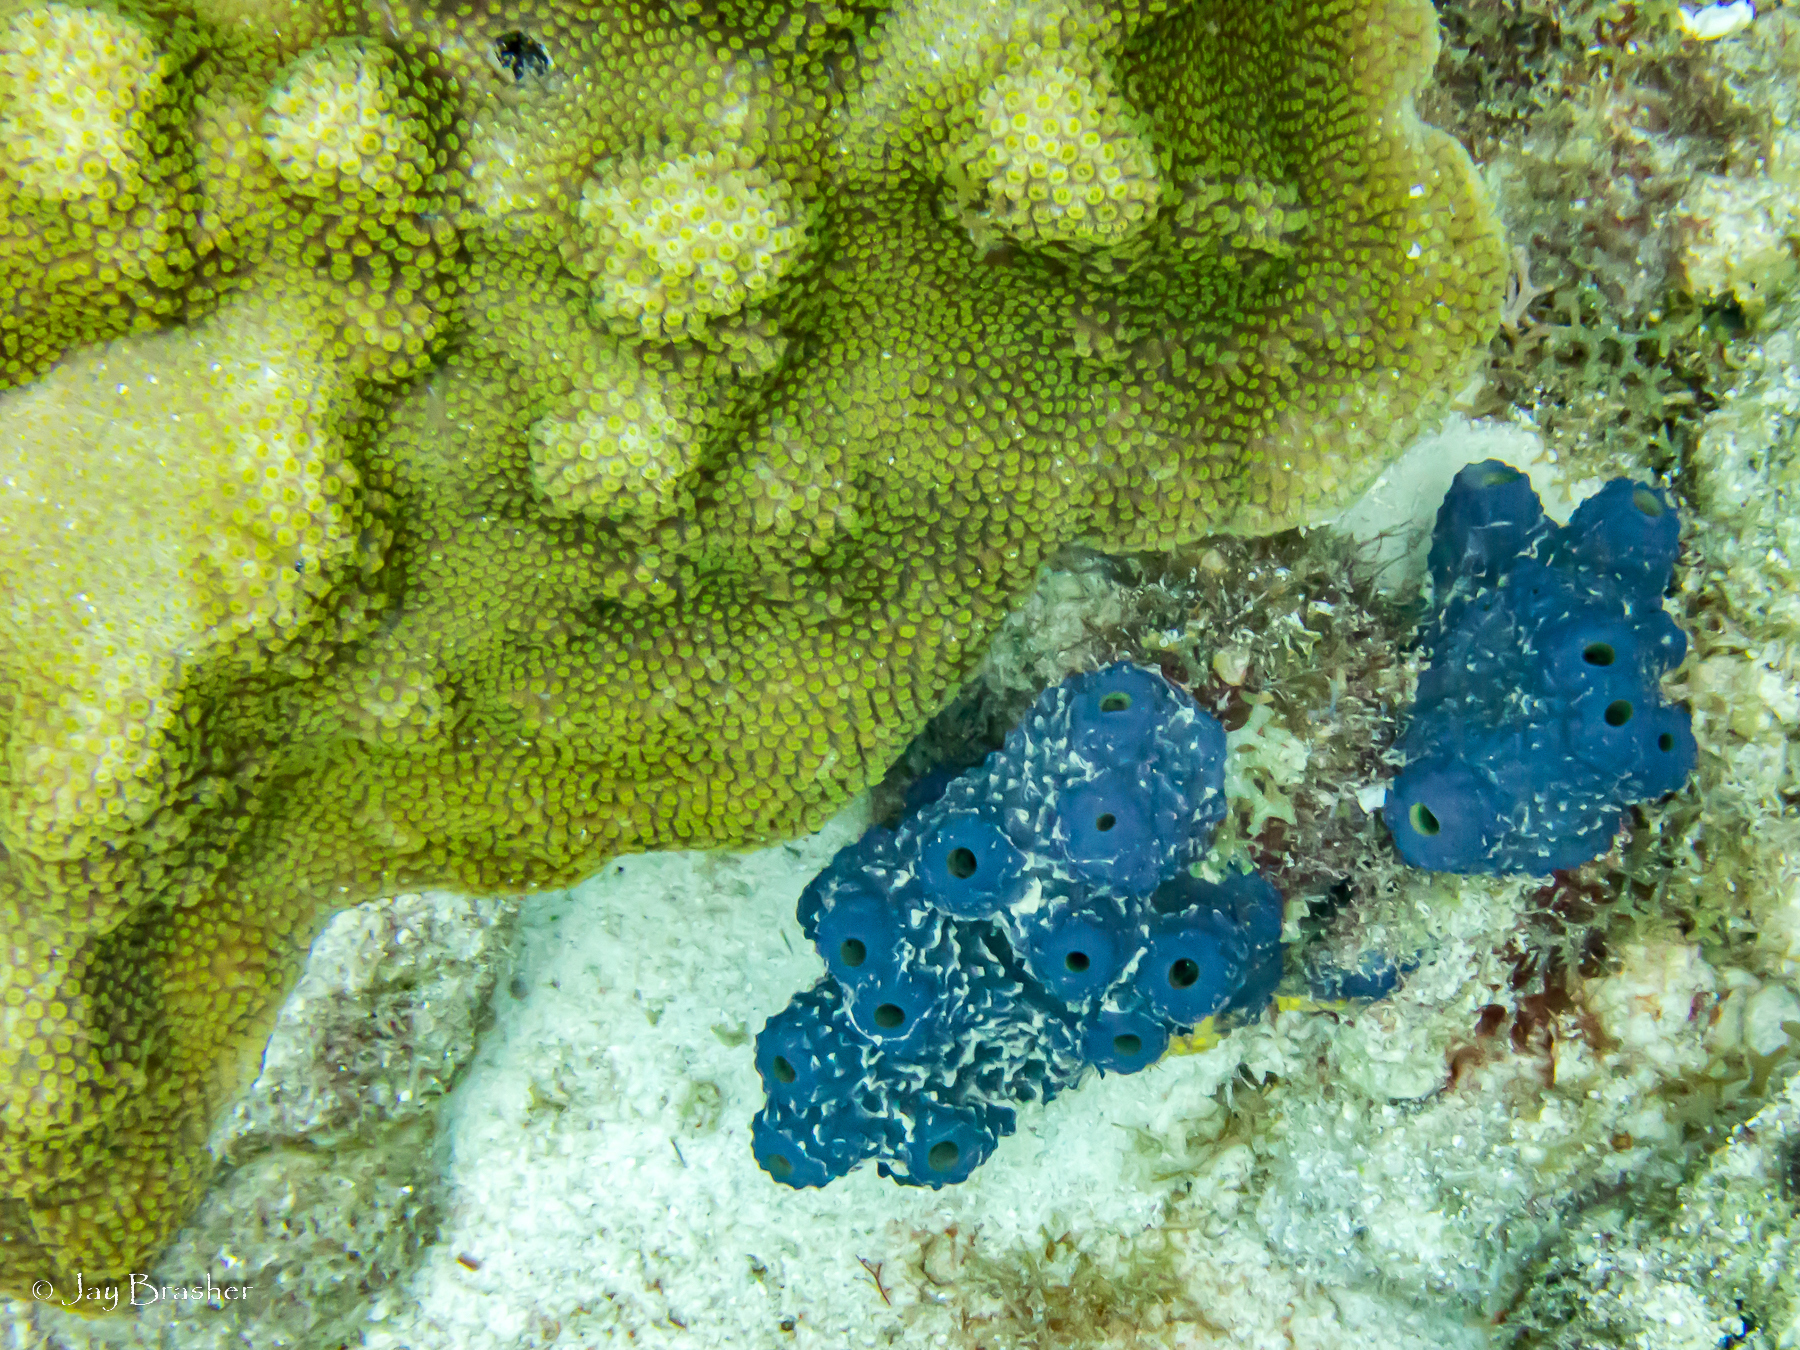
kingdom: Animalia
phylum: Porifera
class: Demospongiae
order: Verongiida
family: Aplysinidae
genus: Aiolochroia
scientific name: Aiolochroia crassa
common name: Branching tube sponge
